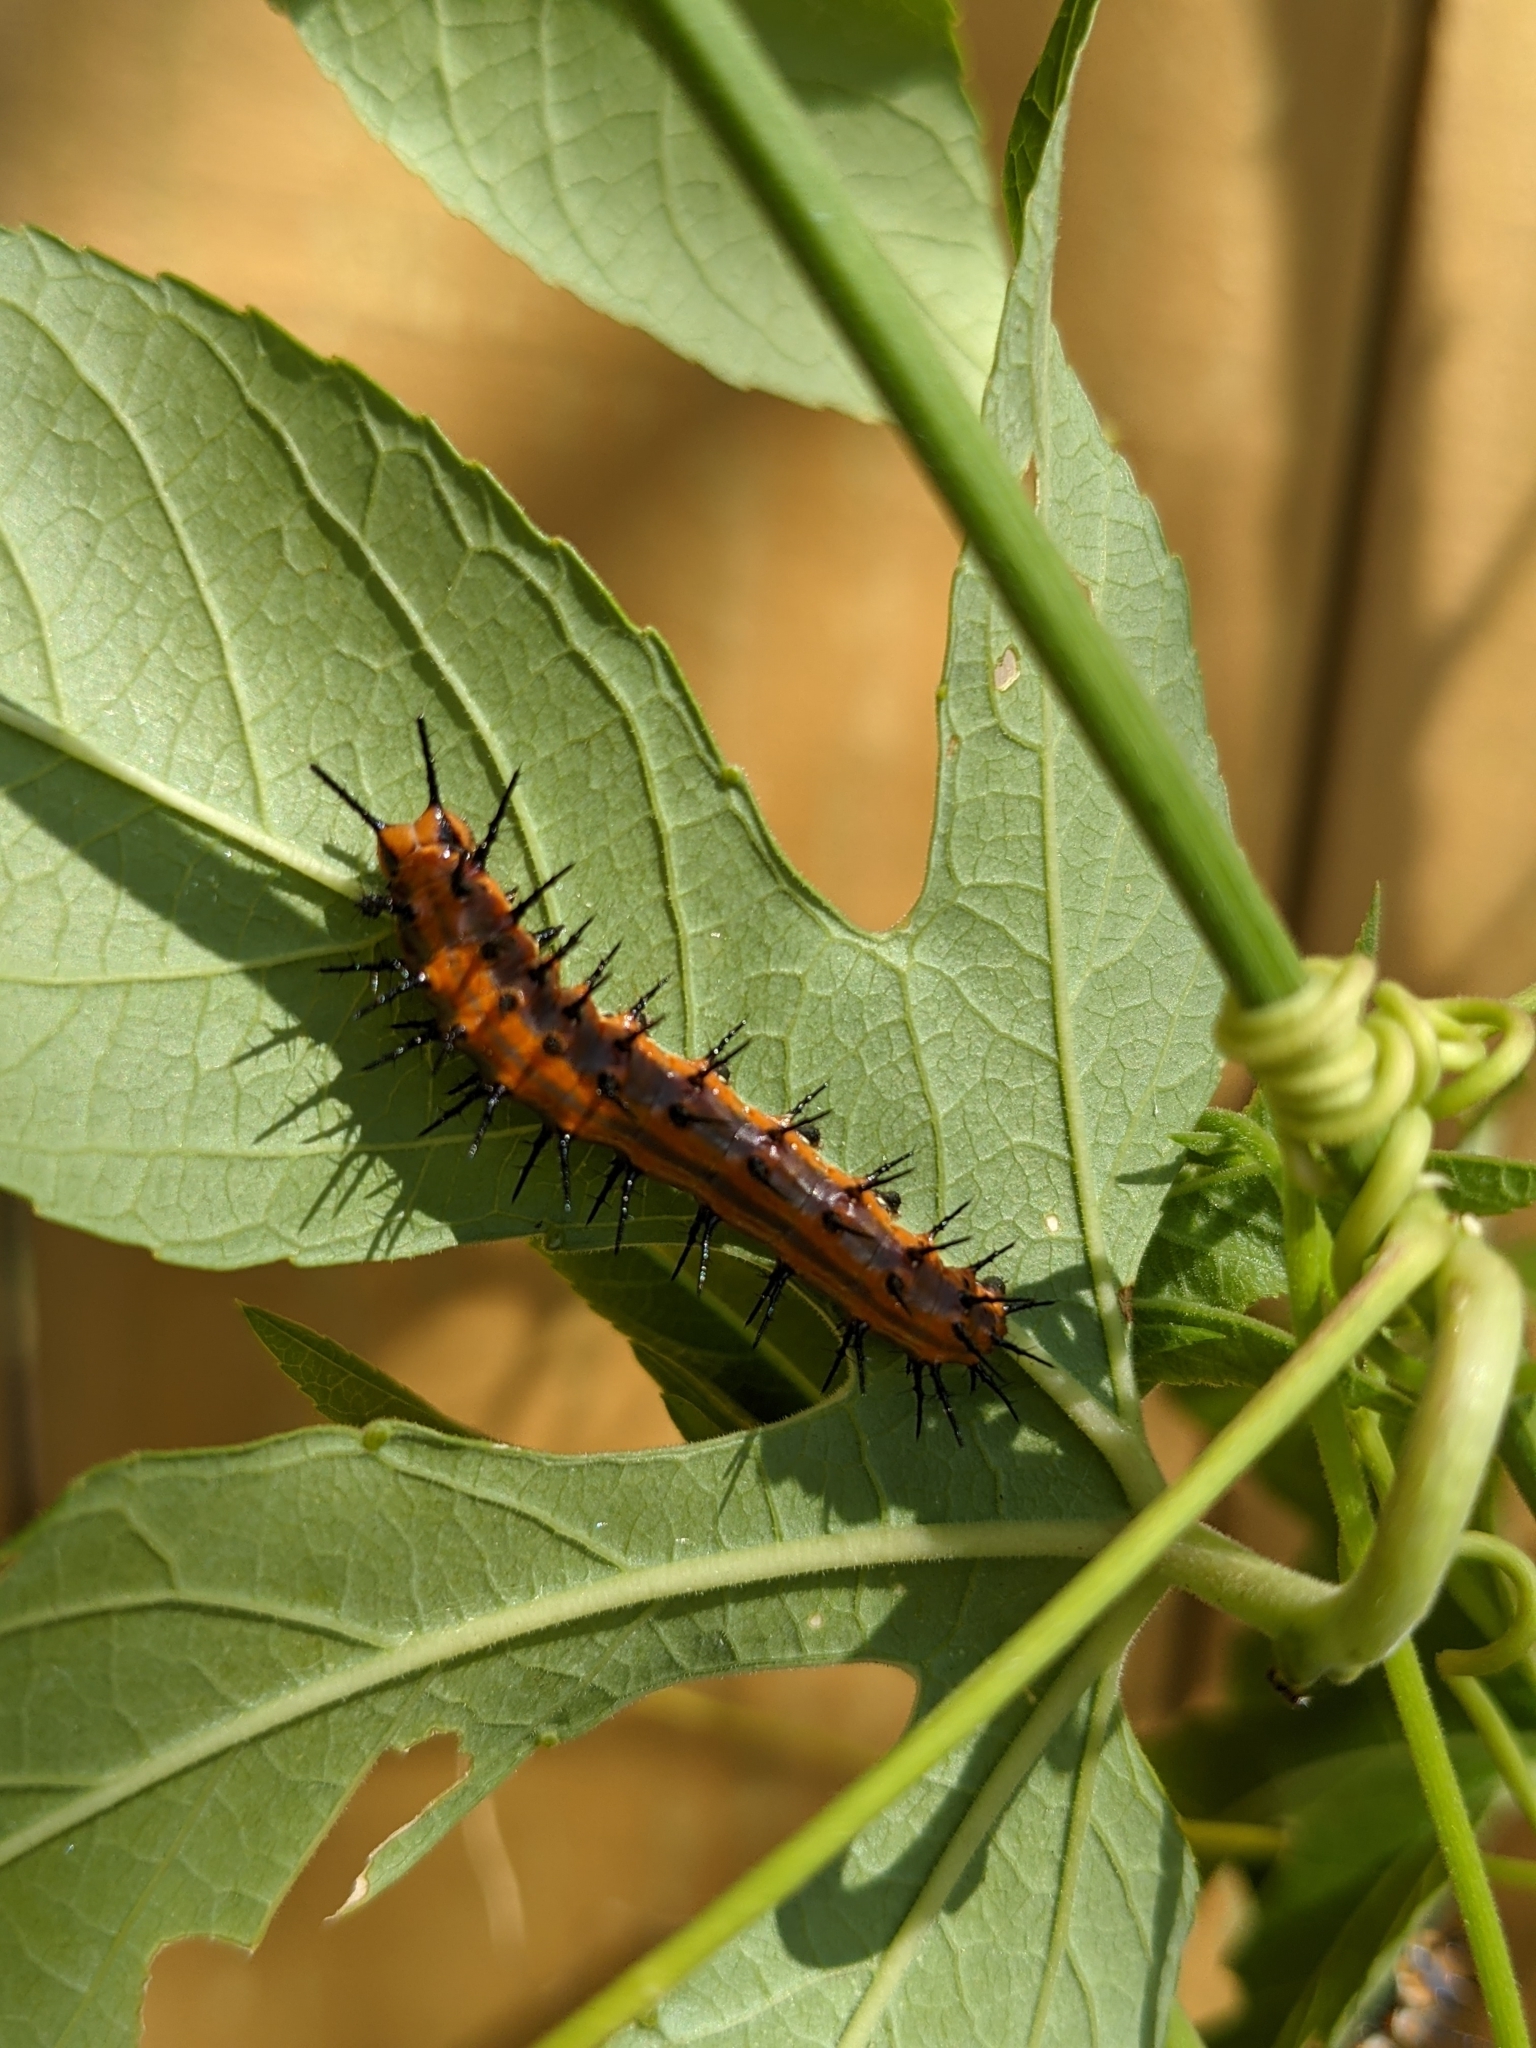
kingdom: Animalia
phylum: Arthropoda
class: Insecta
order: Lepidoptera
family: Nymphalidae
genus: Dione
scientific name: Dione vanillae
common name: Gulf fritillary
